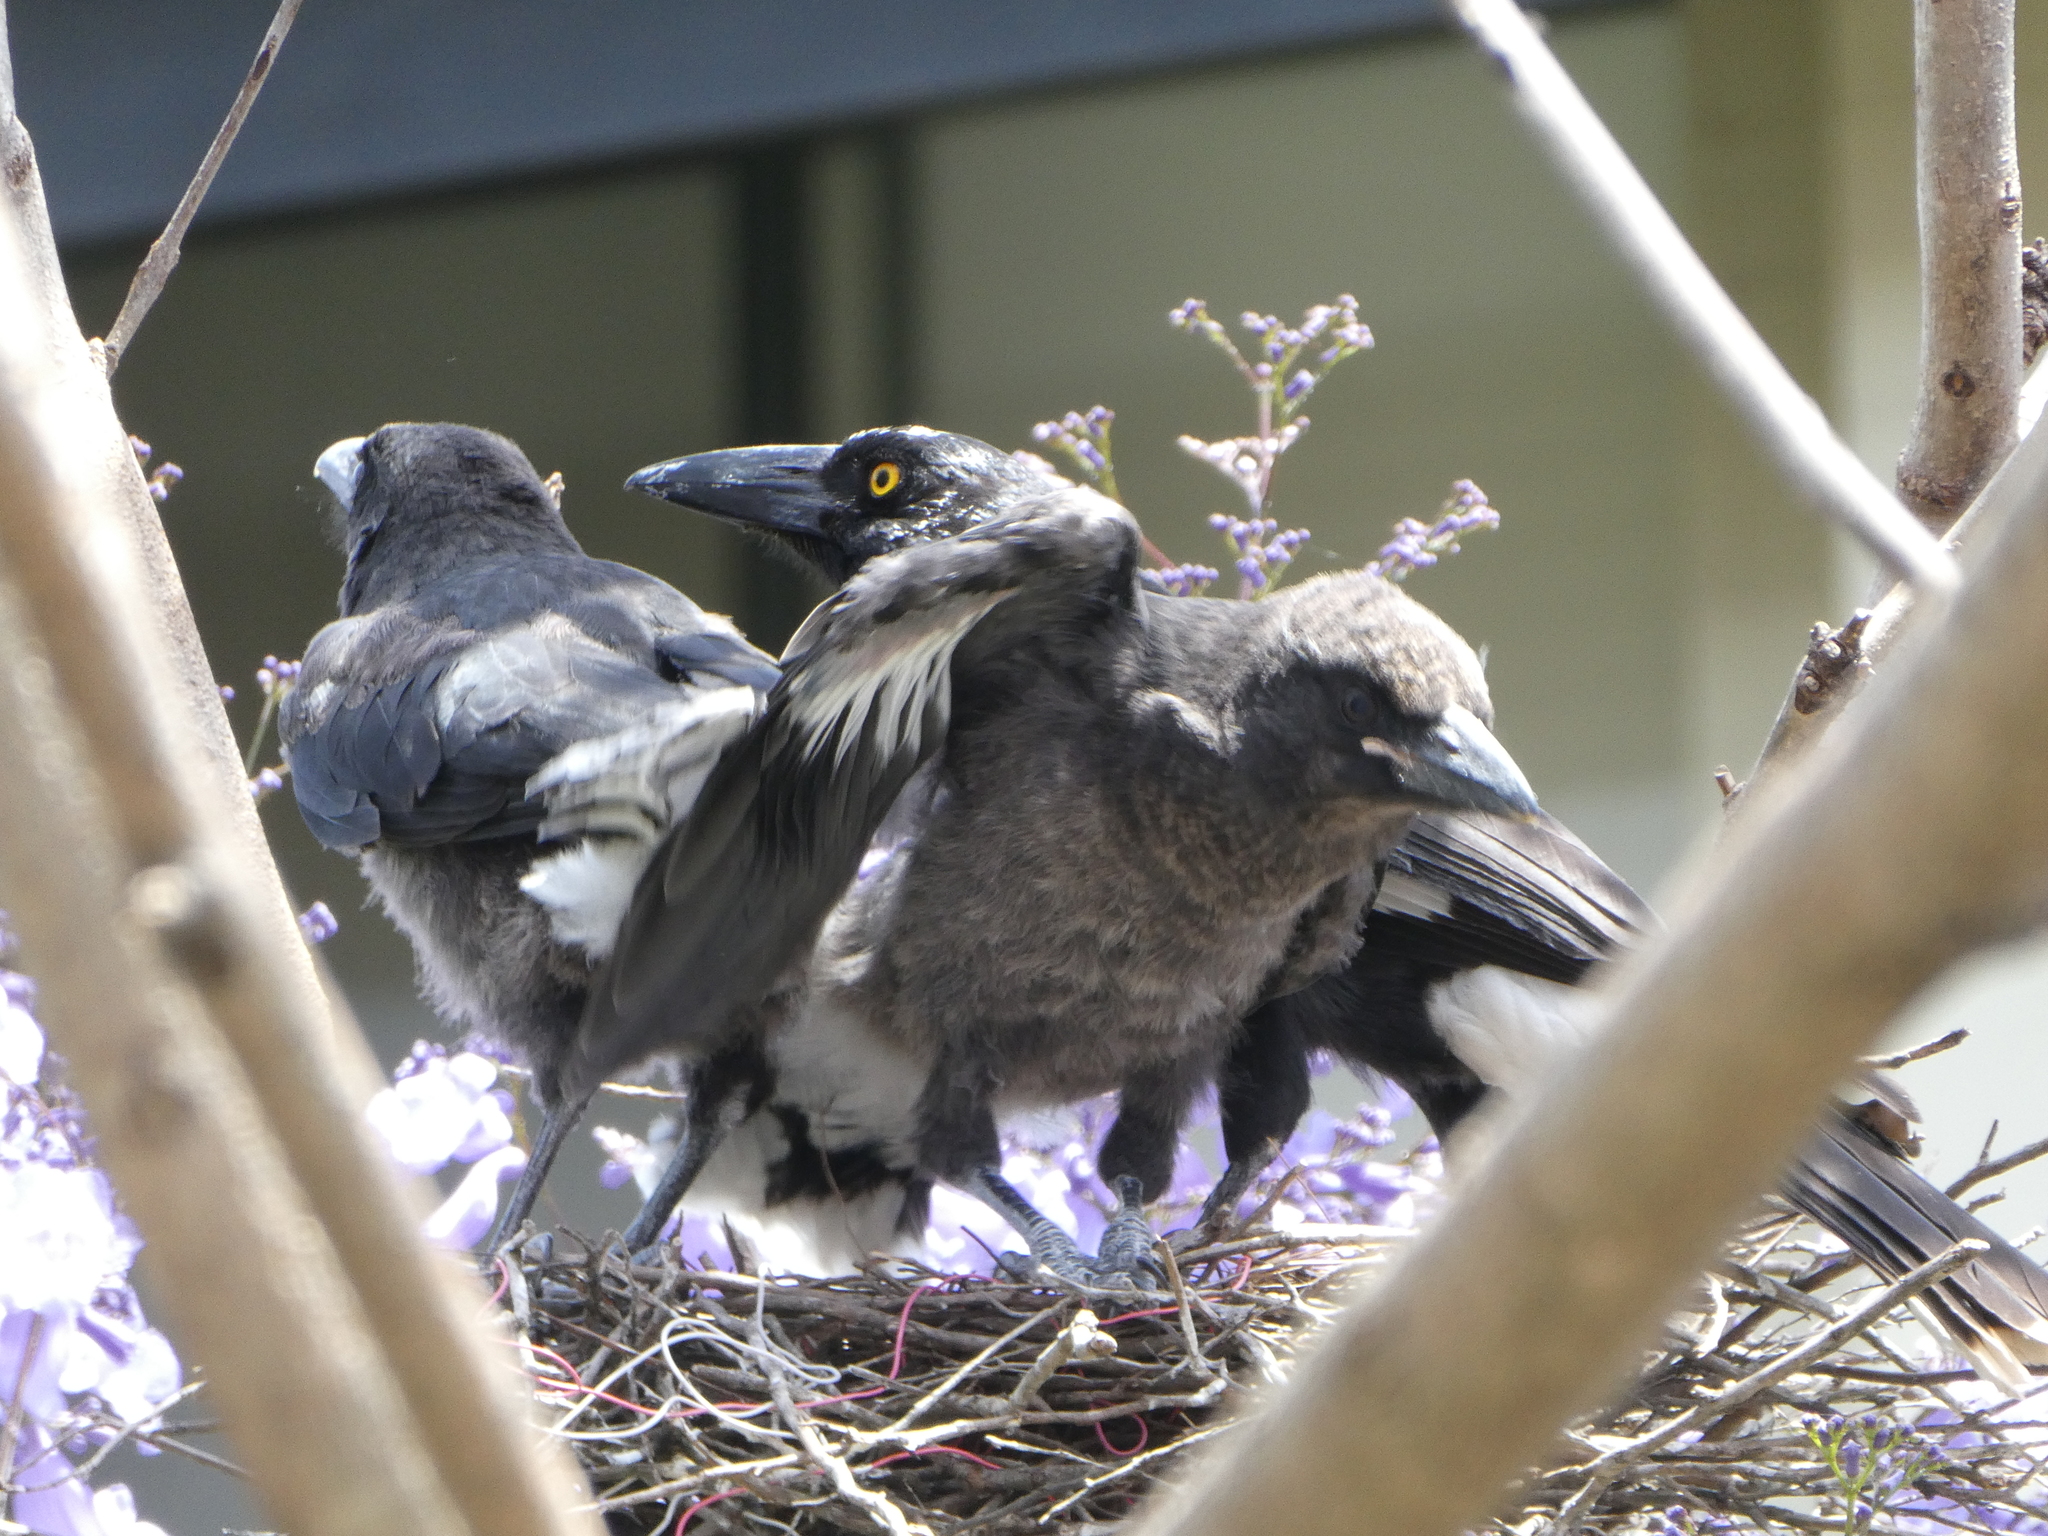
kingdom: Animalia
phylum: Chordata
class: Aves
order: Passeriformes
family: Cracticidae
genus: Strepera
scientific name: Strepera graculina
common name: Pied currawong
